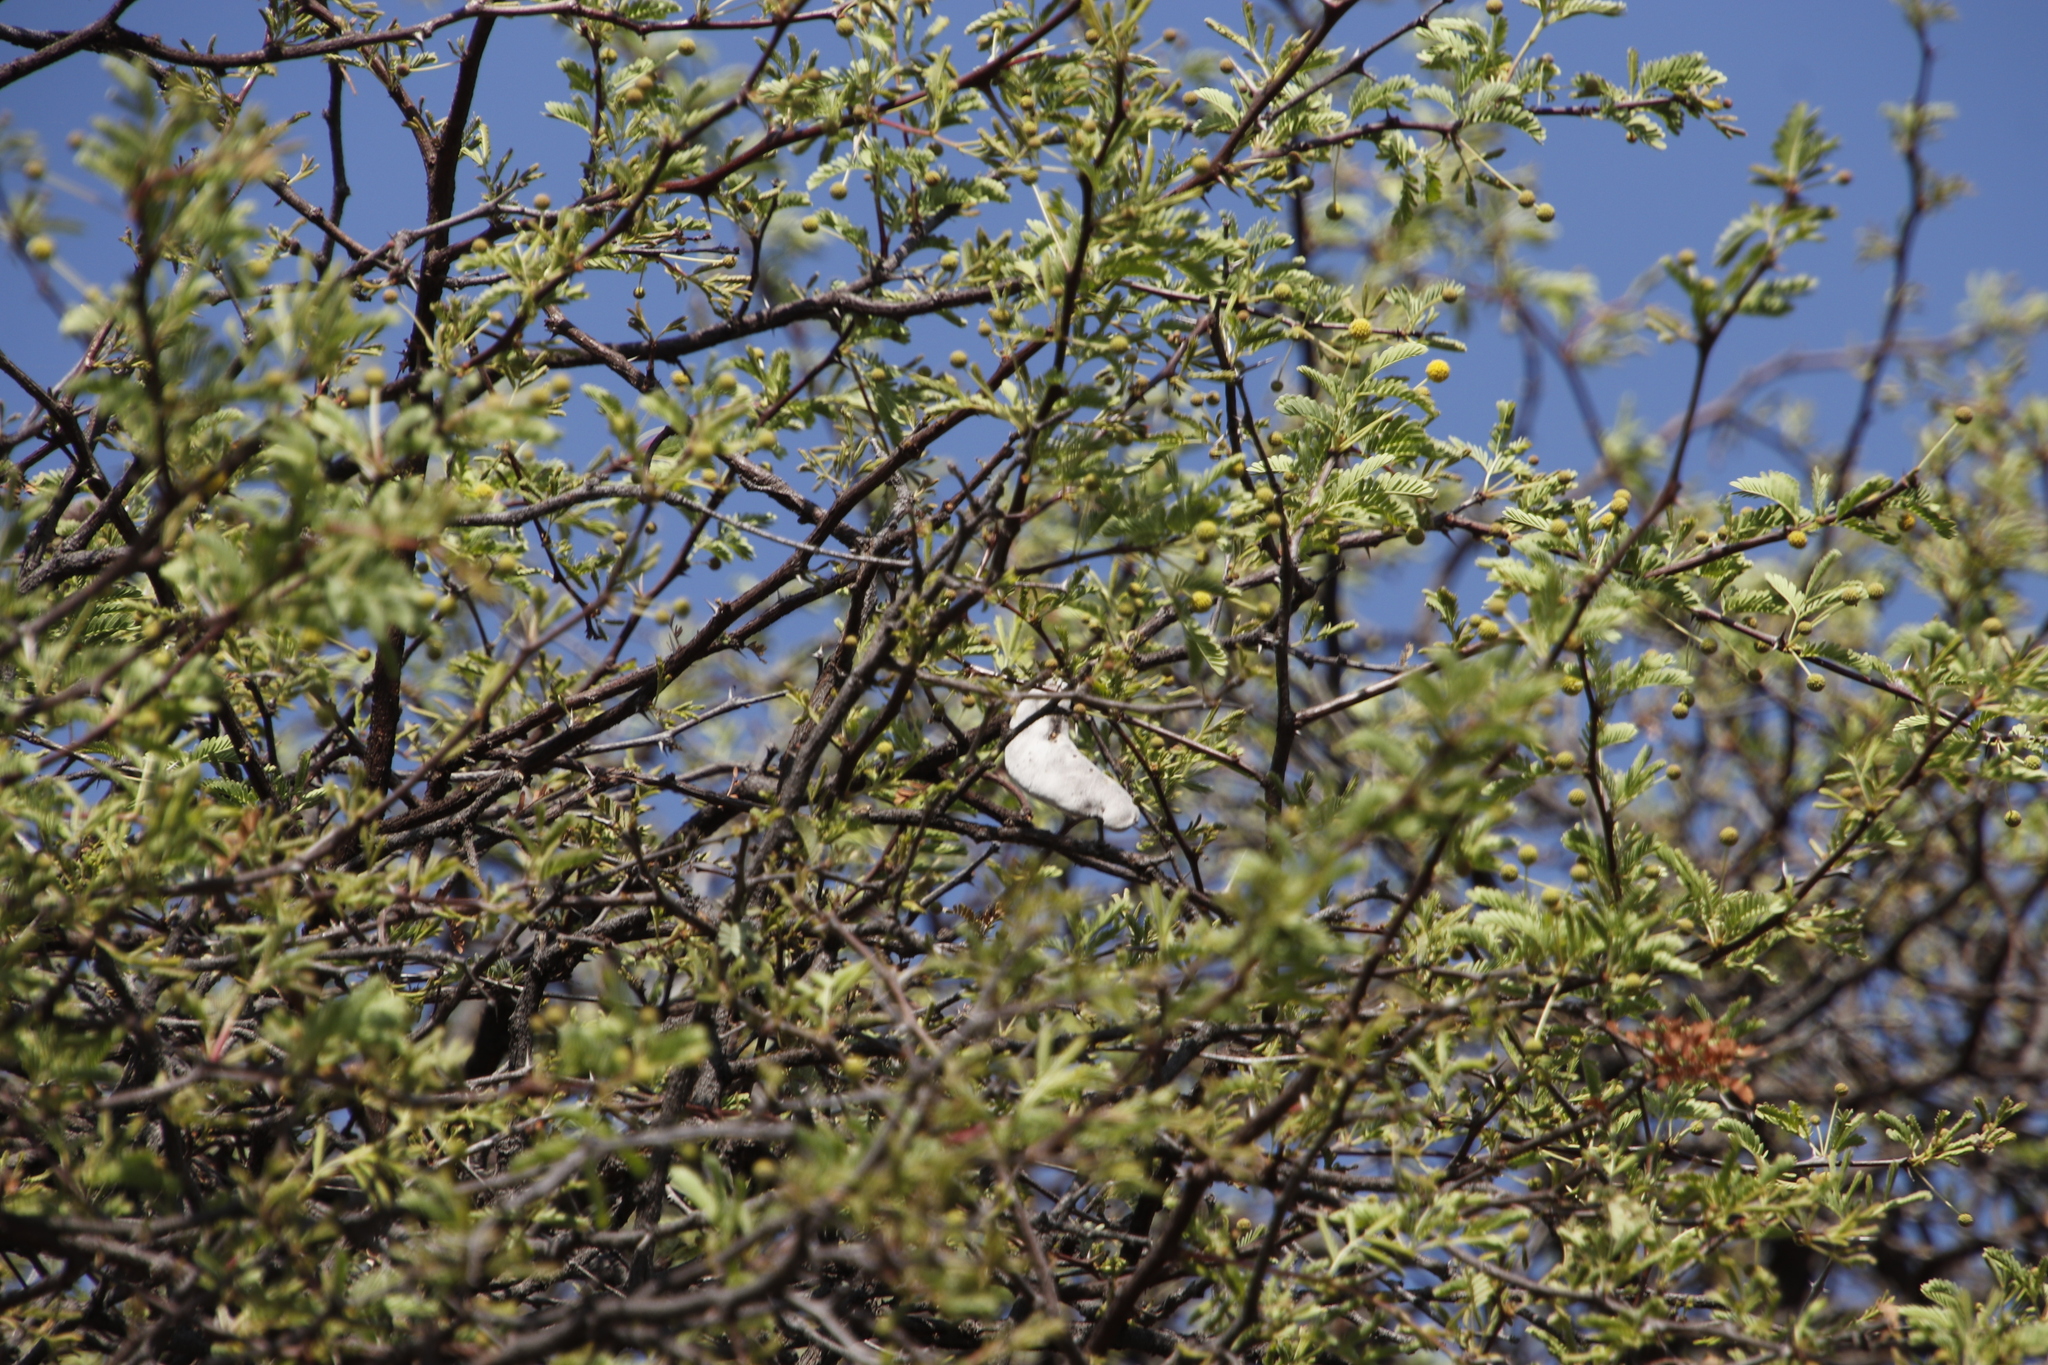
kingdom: Plantae
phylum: Tracheophyta
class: Magnoliopsida
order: Fabales
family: Fabaceae
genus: Vachellia
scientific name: Vachellia erioloba
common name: Camel thorn
